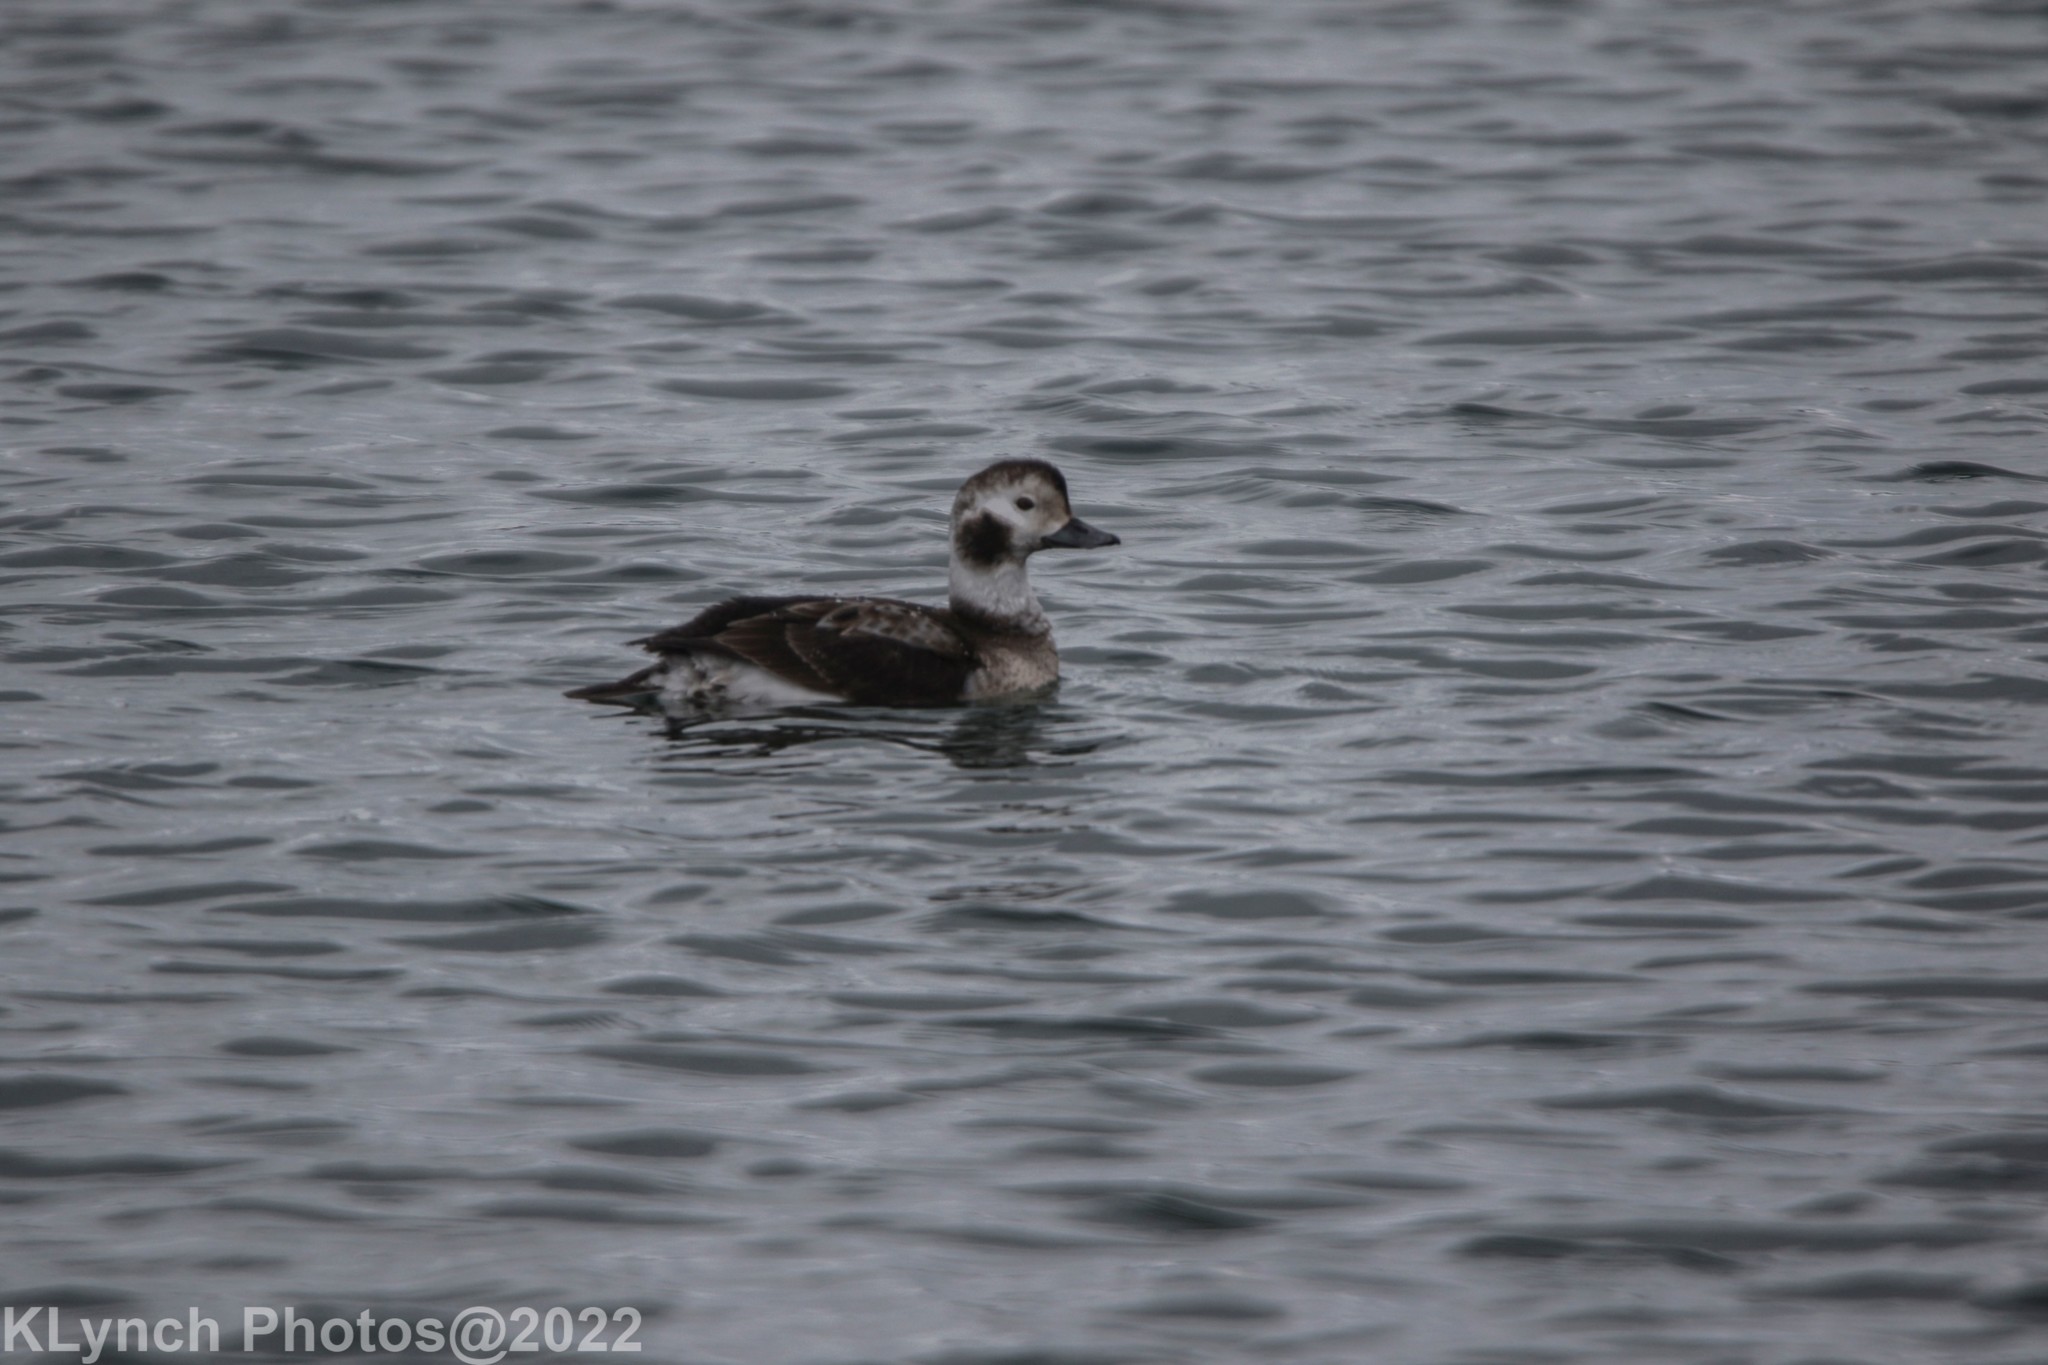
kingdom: Animalia
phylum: Chordata
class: Aves
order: Anseriformes
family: Anatidae
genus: Clangula
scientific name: Clangula hyemalis
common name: Long-tailed duck
